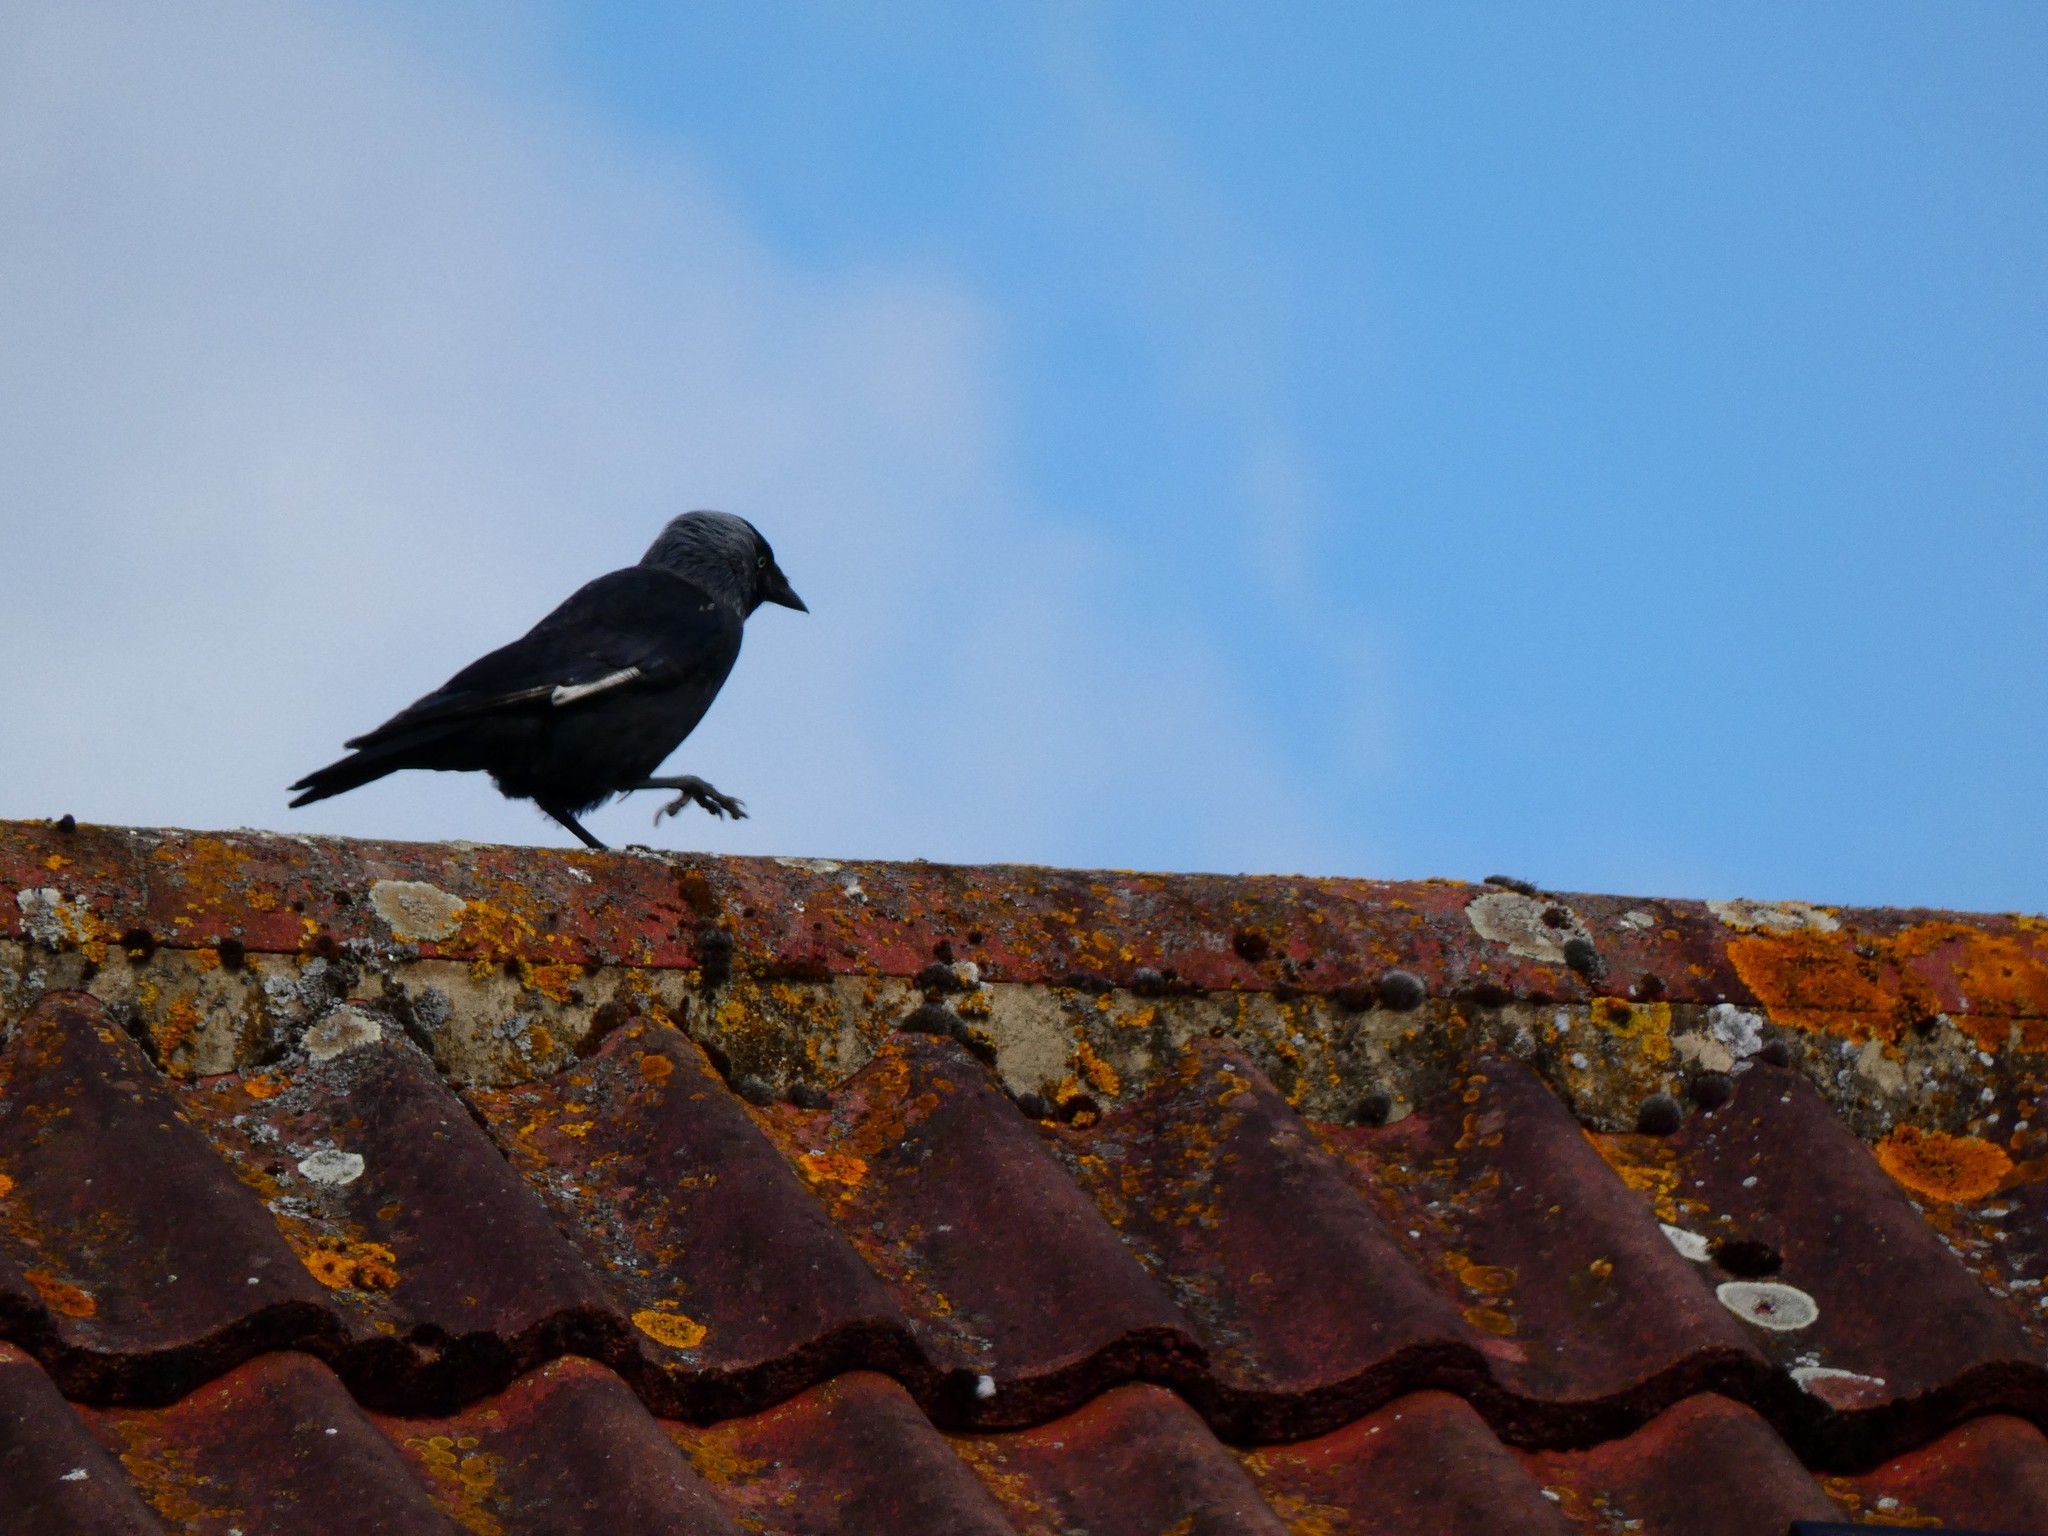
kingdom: Animalia
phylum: Chordata
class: Aves
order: Passeriformes
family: Corvidae
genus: Coloeus
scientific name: Coloeus monedula
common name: Western jackdaw
